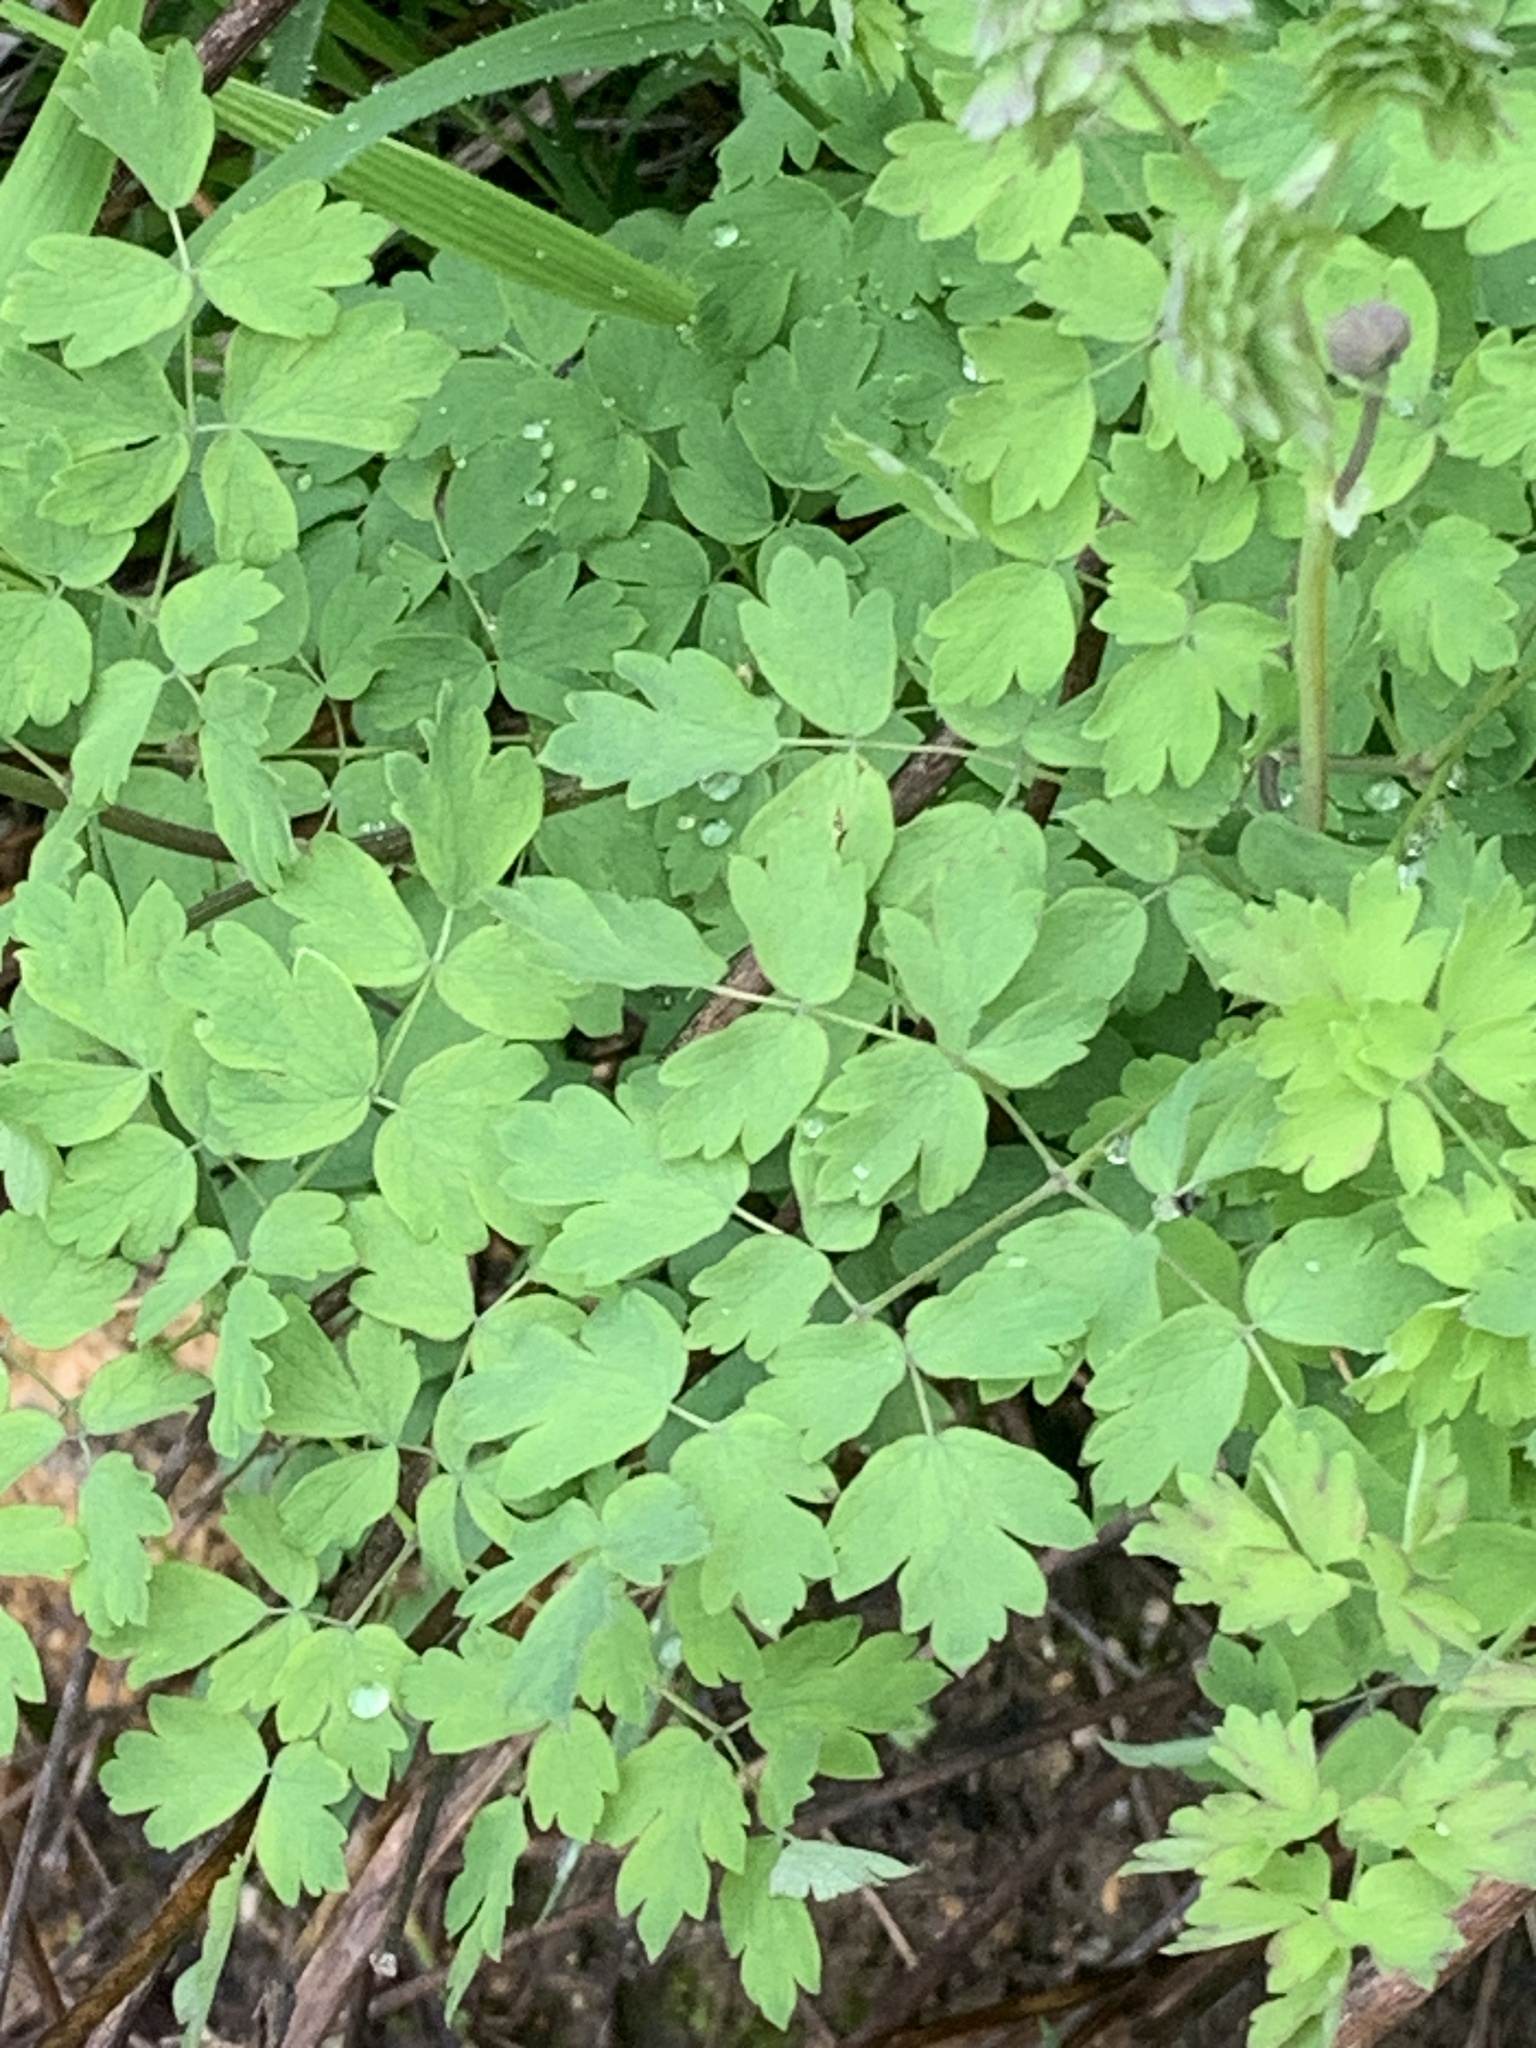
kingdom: Plantae
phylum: Tracheophyta
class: Magnoliopsida
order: Ranunculales
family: Ranunculaceae
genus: Thalictrum
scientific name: Thalictrum fendleri
